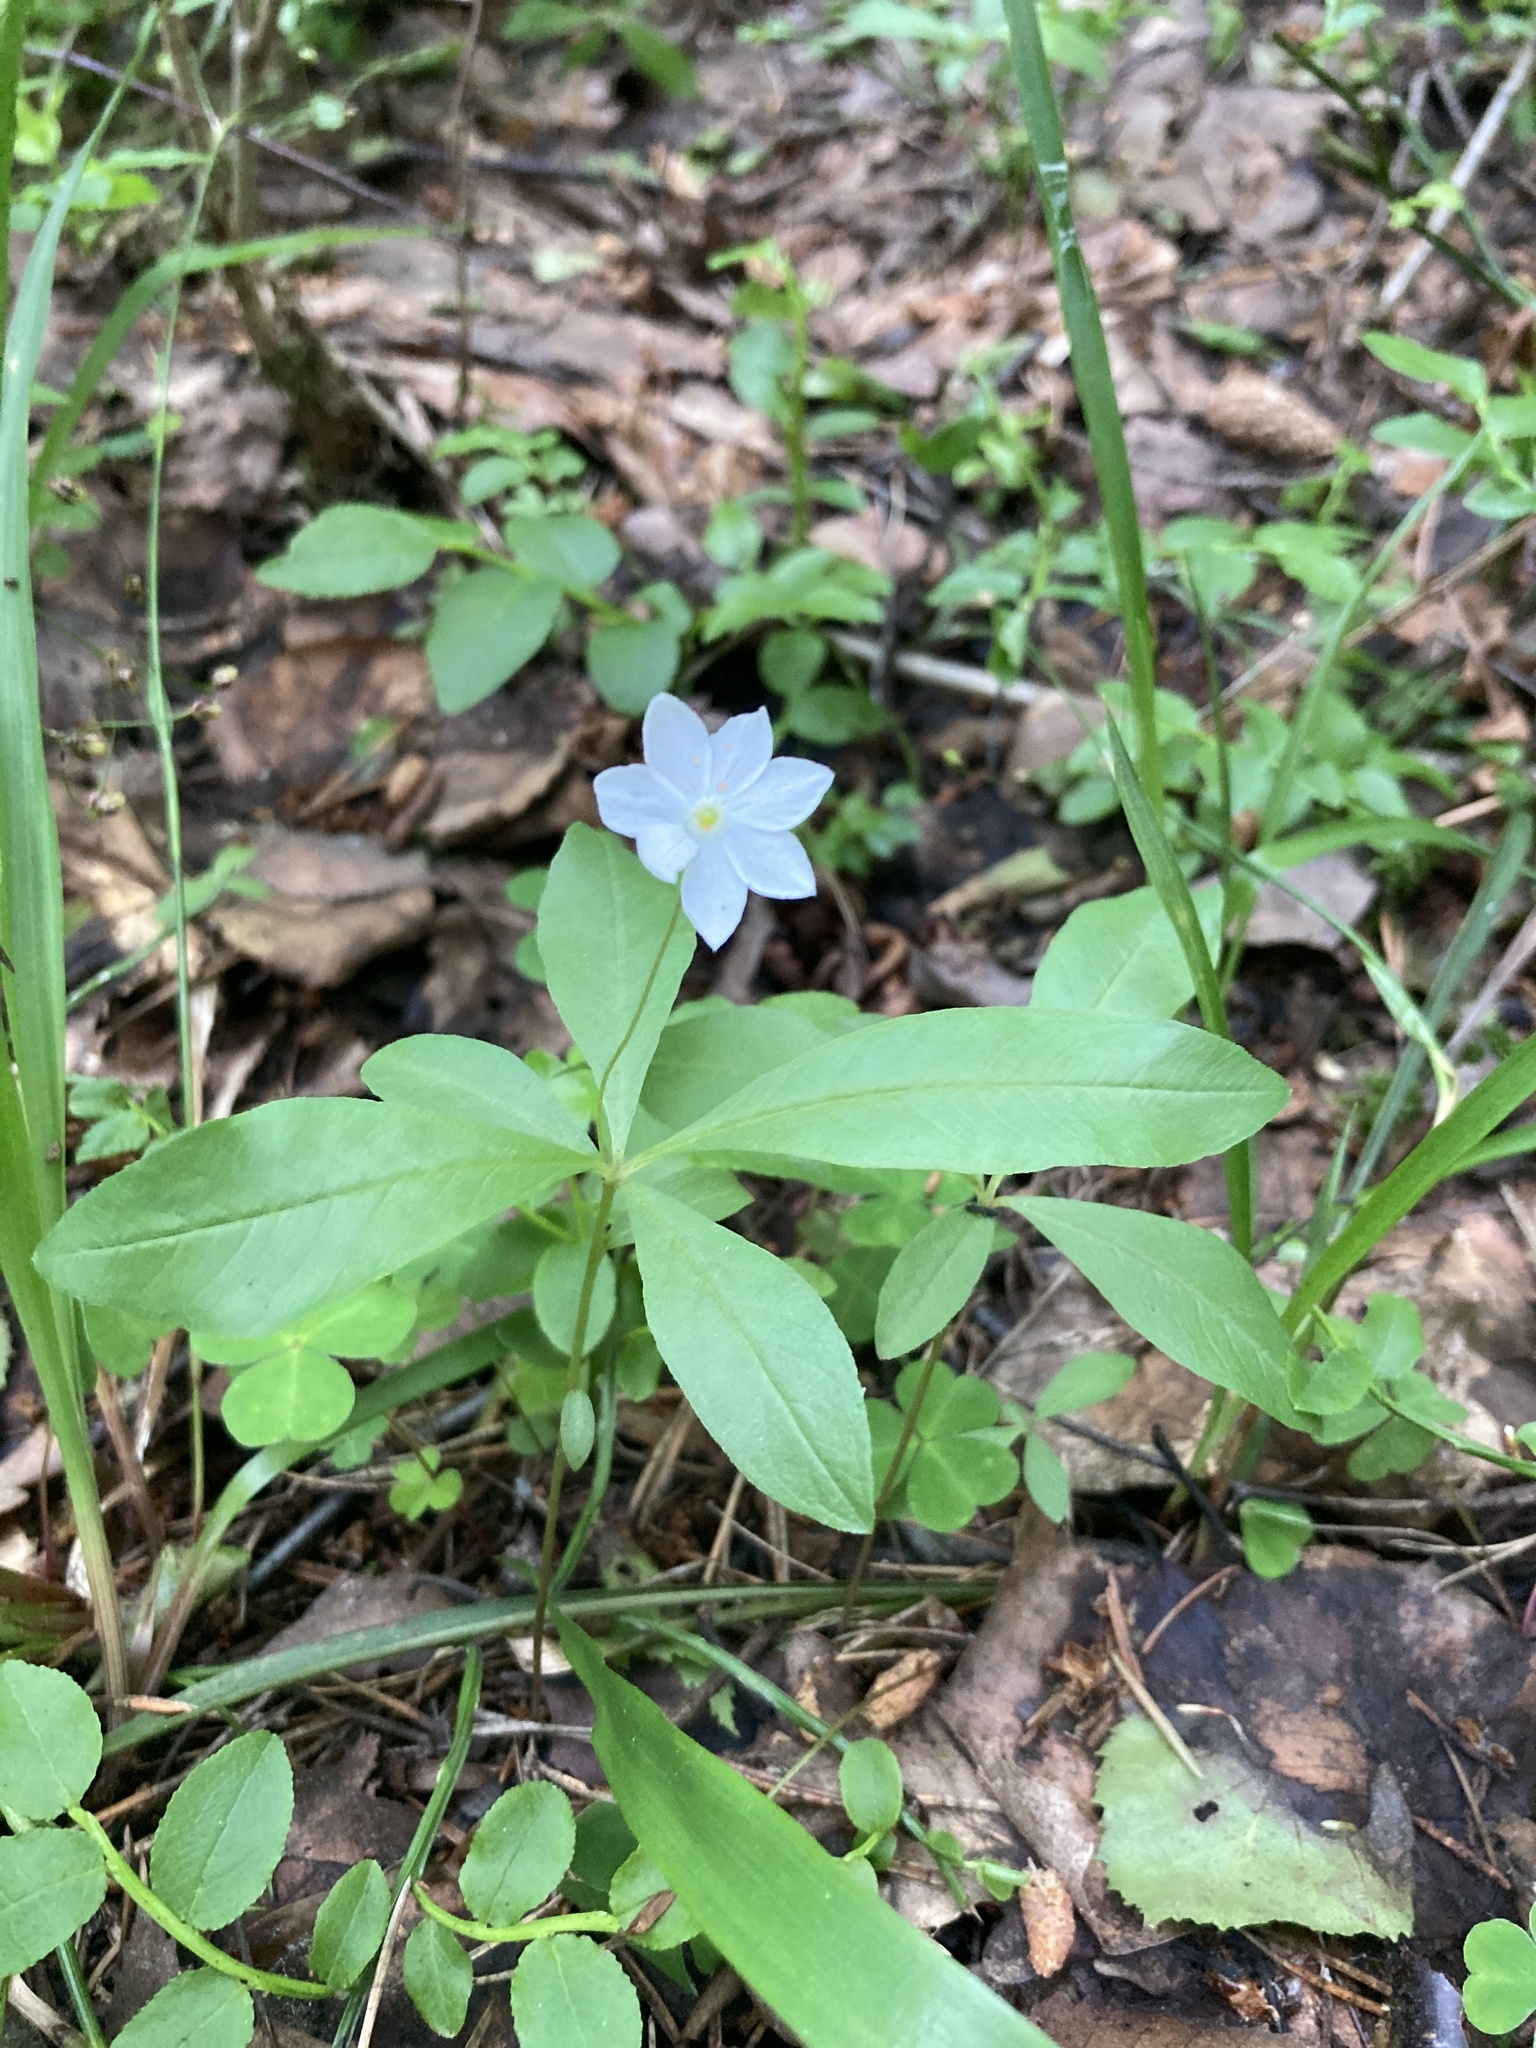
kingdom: Plantae
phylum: Tracheophyta
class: Magnoliopsida
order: Ericales
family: Primulaceae
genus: Lysimachia
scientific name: Lysimachia europaea
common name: Arctic starflower
